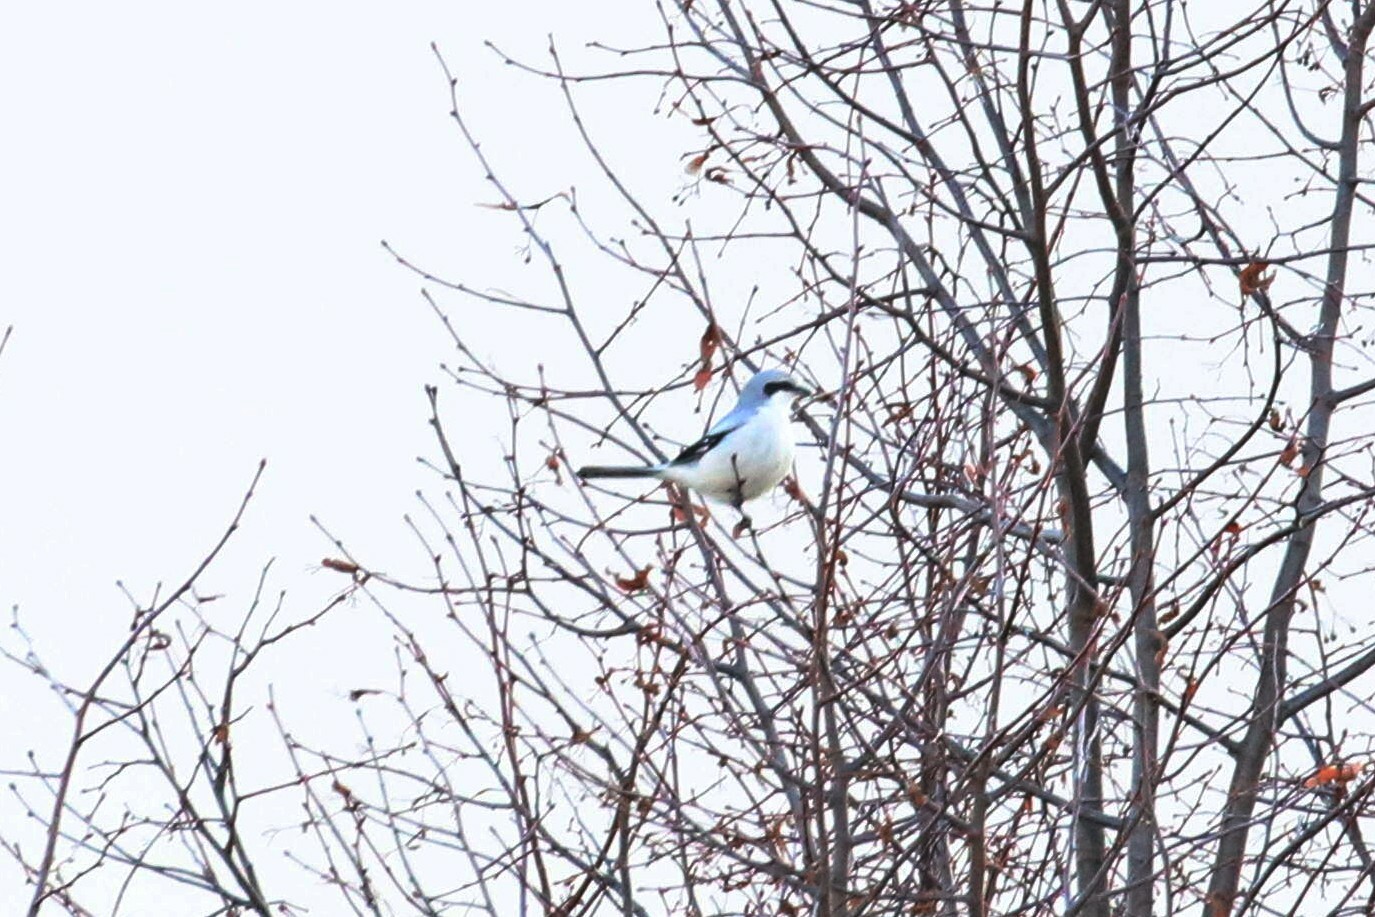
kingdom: Animalia
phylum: Chordata
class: Aves
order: Passeriformes
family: Laniidae
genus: Lanius
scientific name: Lanius excubitor
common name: Great grey shrike
